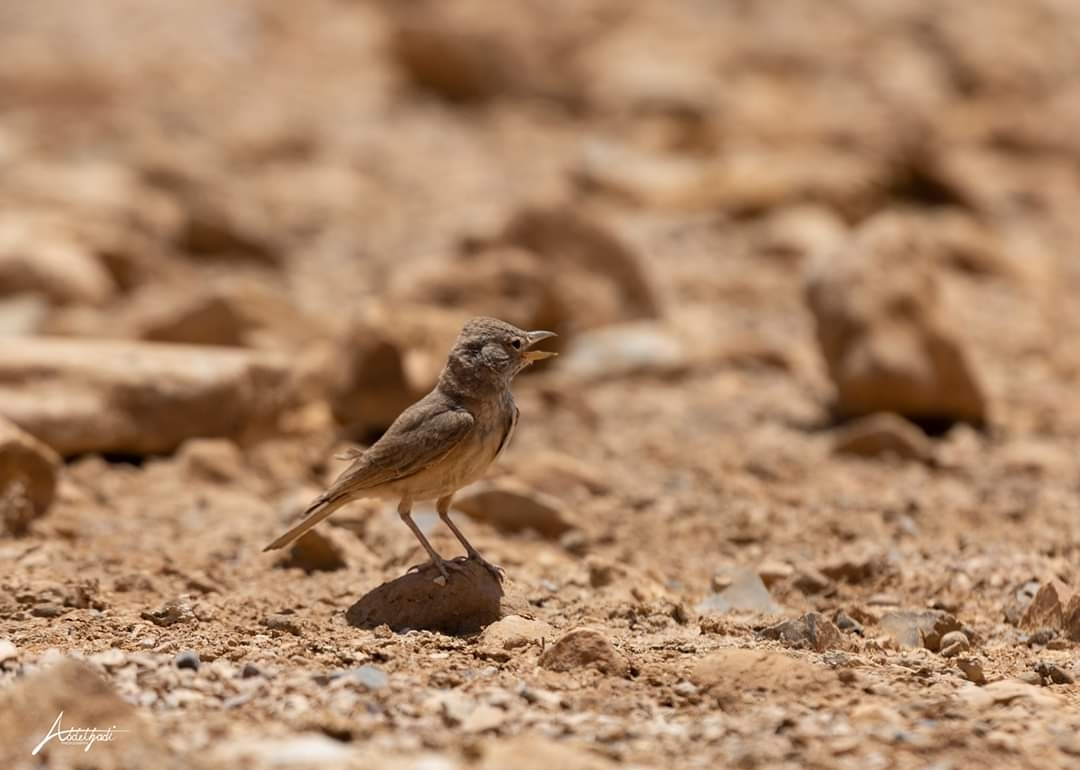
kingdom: Animalia
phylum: Chordata
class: Aves
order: Passeriformes
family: Alaudidae
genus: Ammomanes
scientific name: Ammomanes deserti
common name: Desert lark
